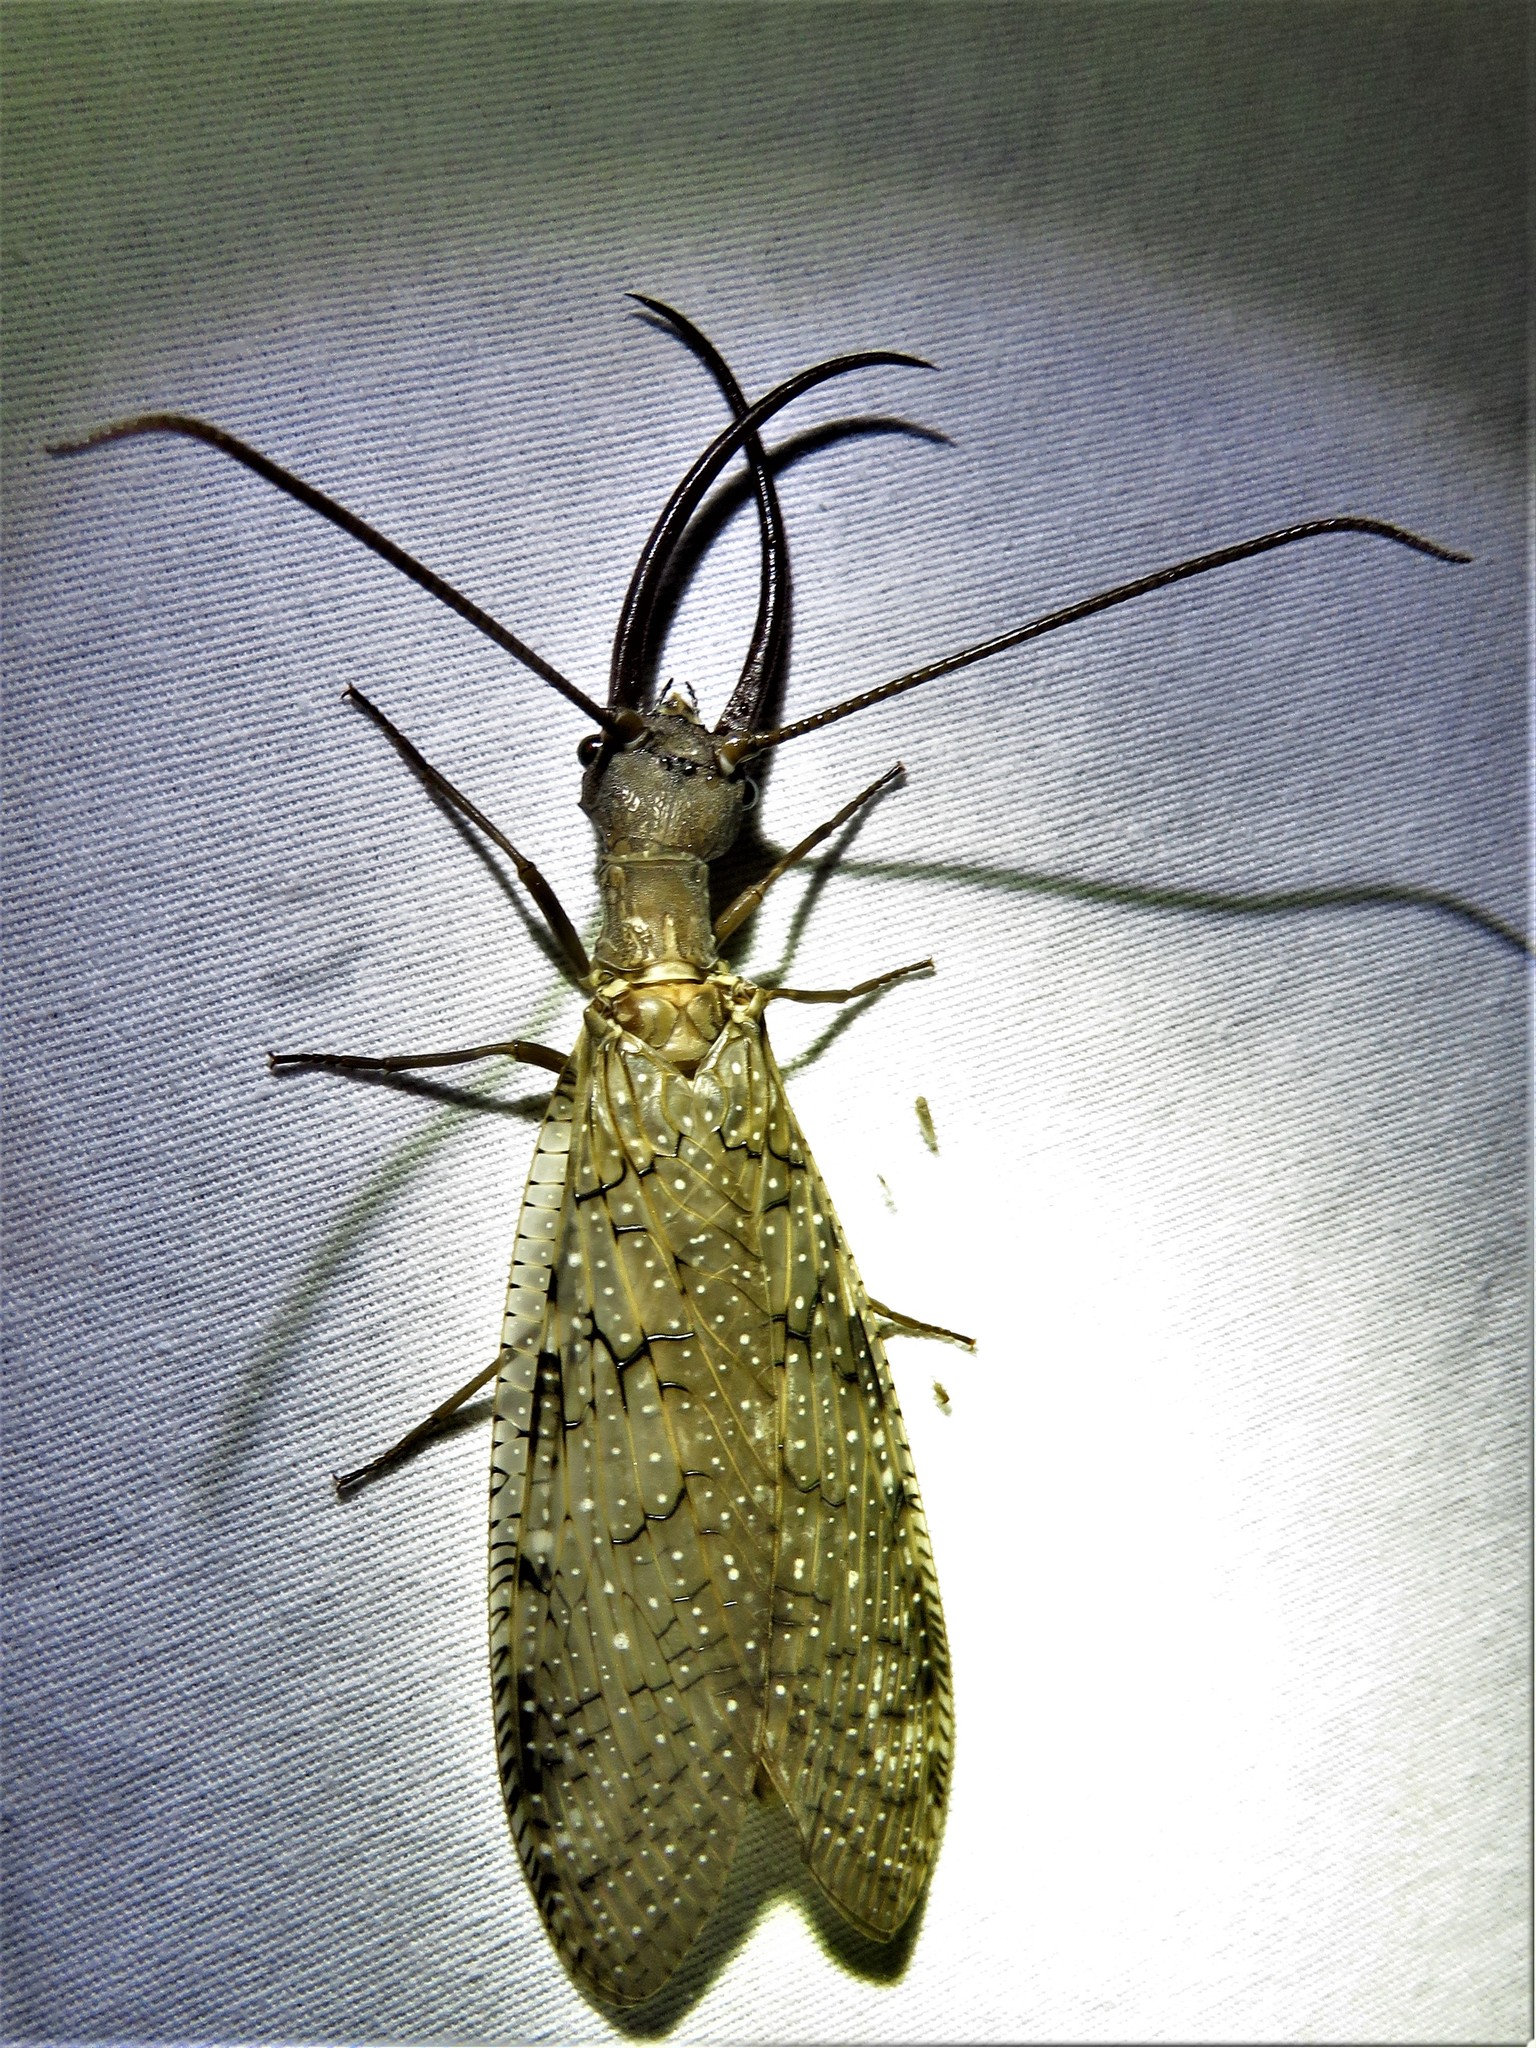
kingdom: Animalia
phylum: Arthropoda
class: Insecta
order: Megaloptera
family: Corydalidae
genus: Corydalus
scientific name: Corydalus cornutus
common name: Dobsonfly
